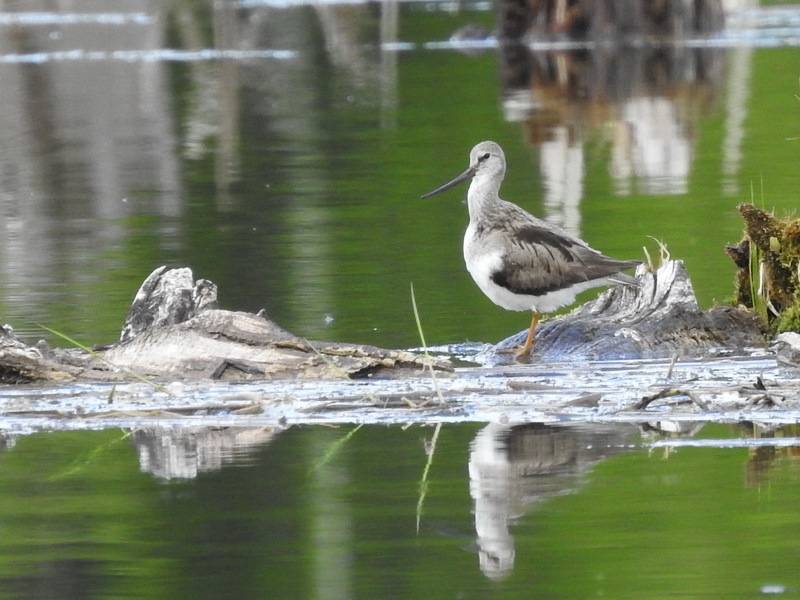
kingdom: Animalia
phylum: Chordata
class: Aves
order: Charadriiformes
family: Scolopacidae
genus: Xenus
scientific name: Xenus cinereus
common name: Terek sandpiper
